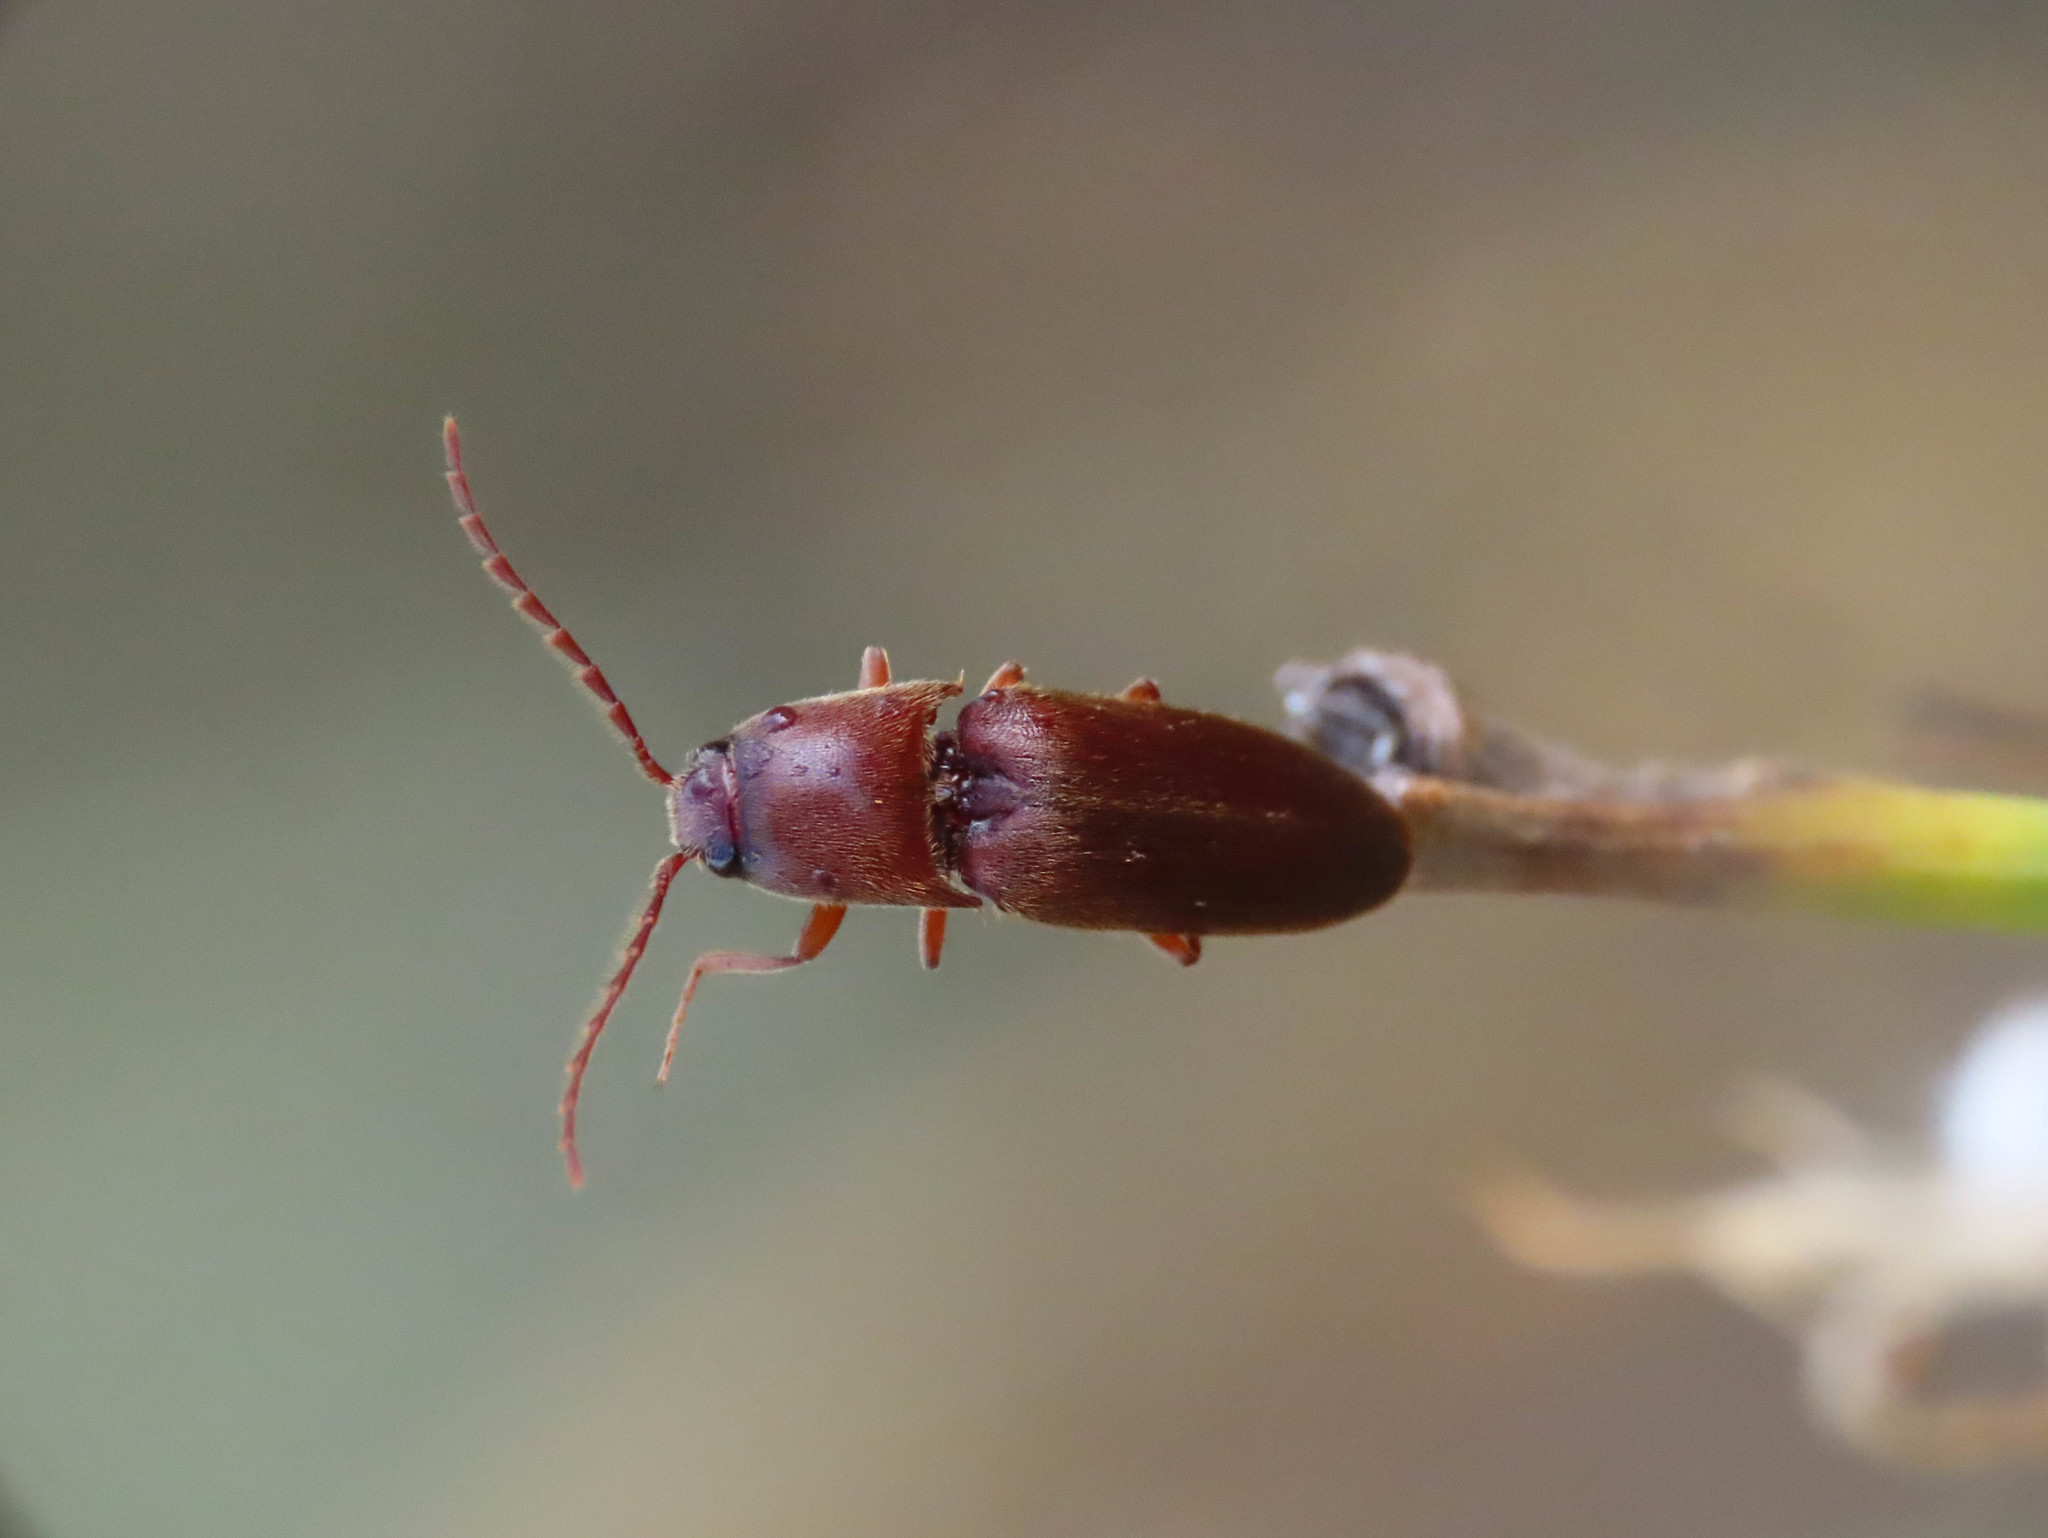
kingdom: Animalia
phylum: Arthropoda
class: Insecta
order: Coleoptera
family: Elateridae
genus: Mulsanteus
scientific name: Mulsanteus guillebeaui
